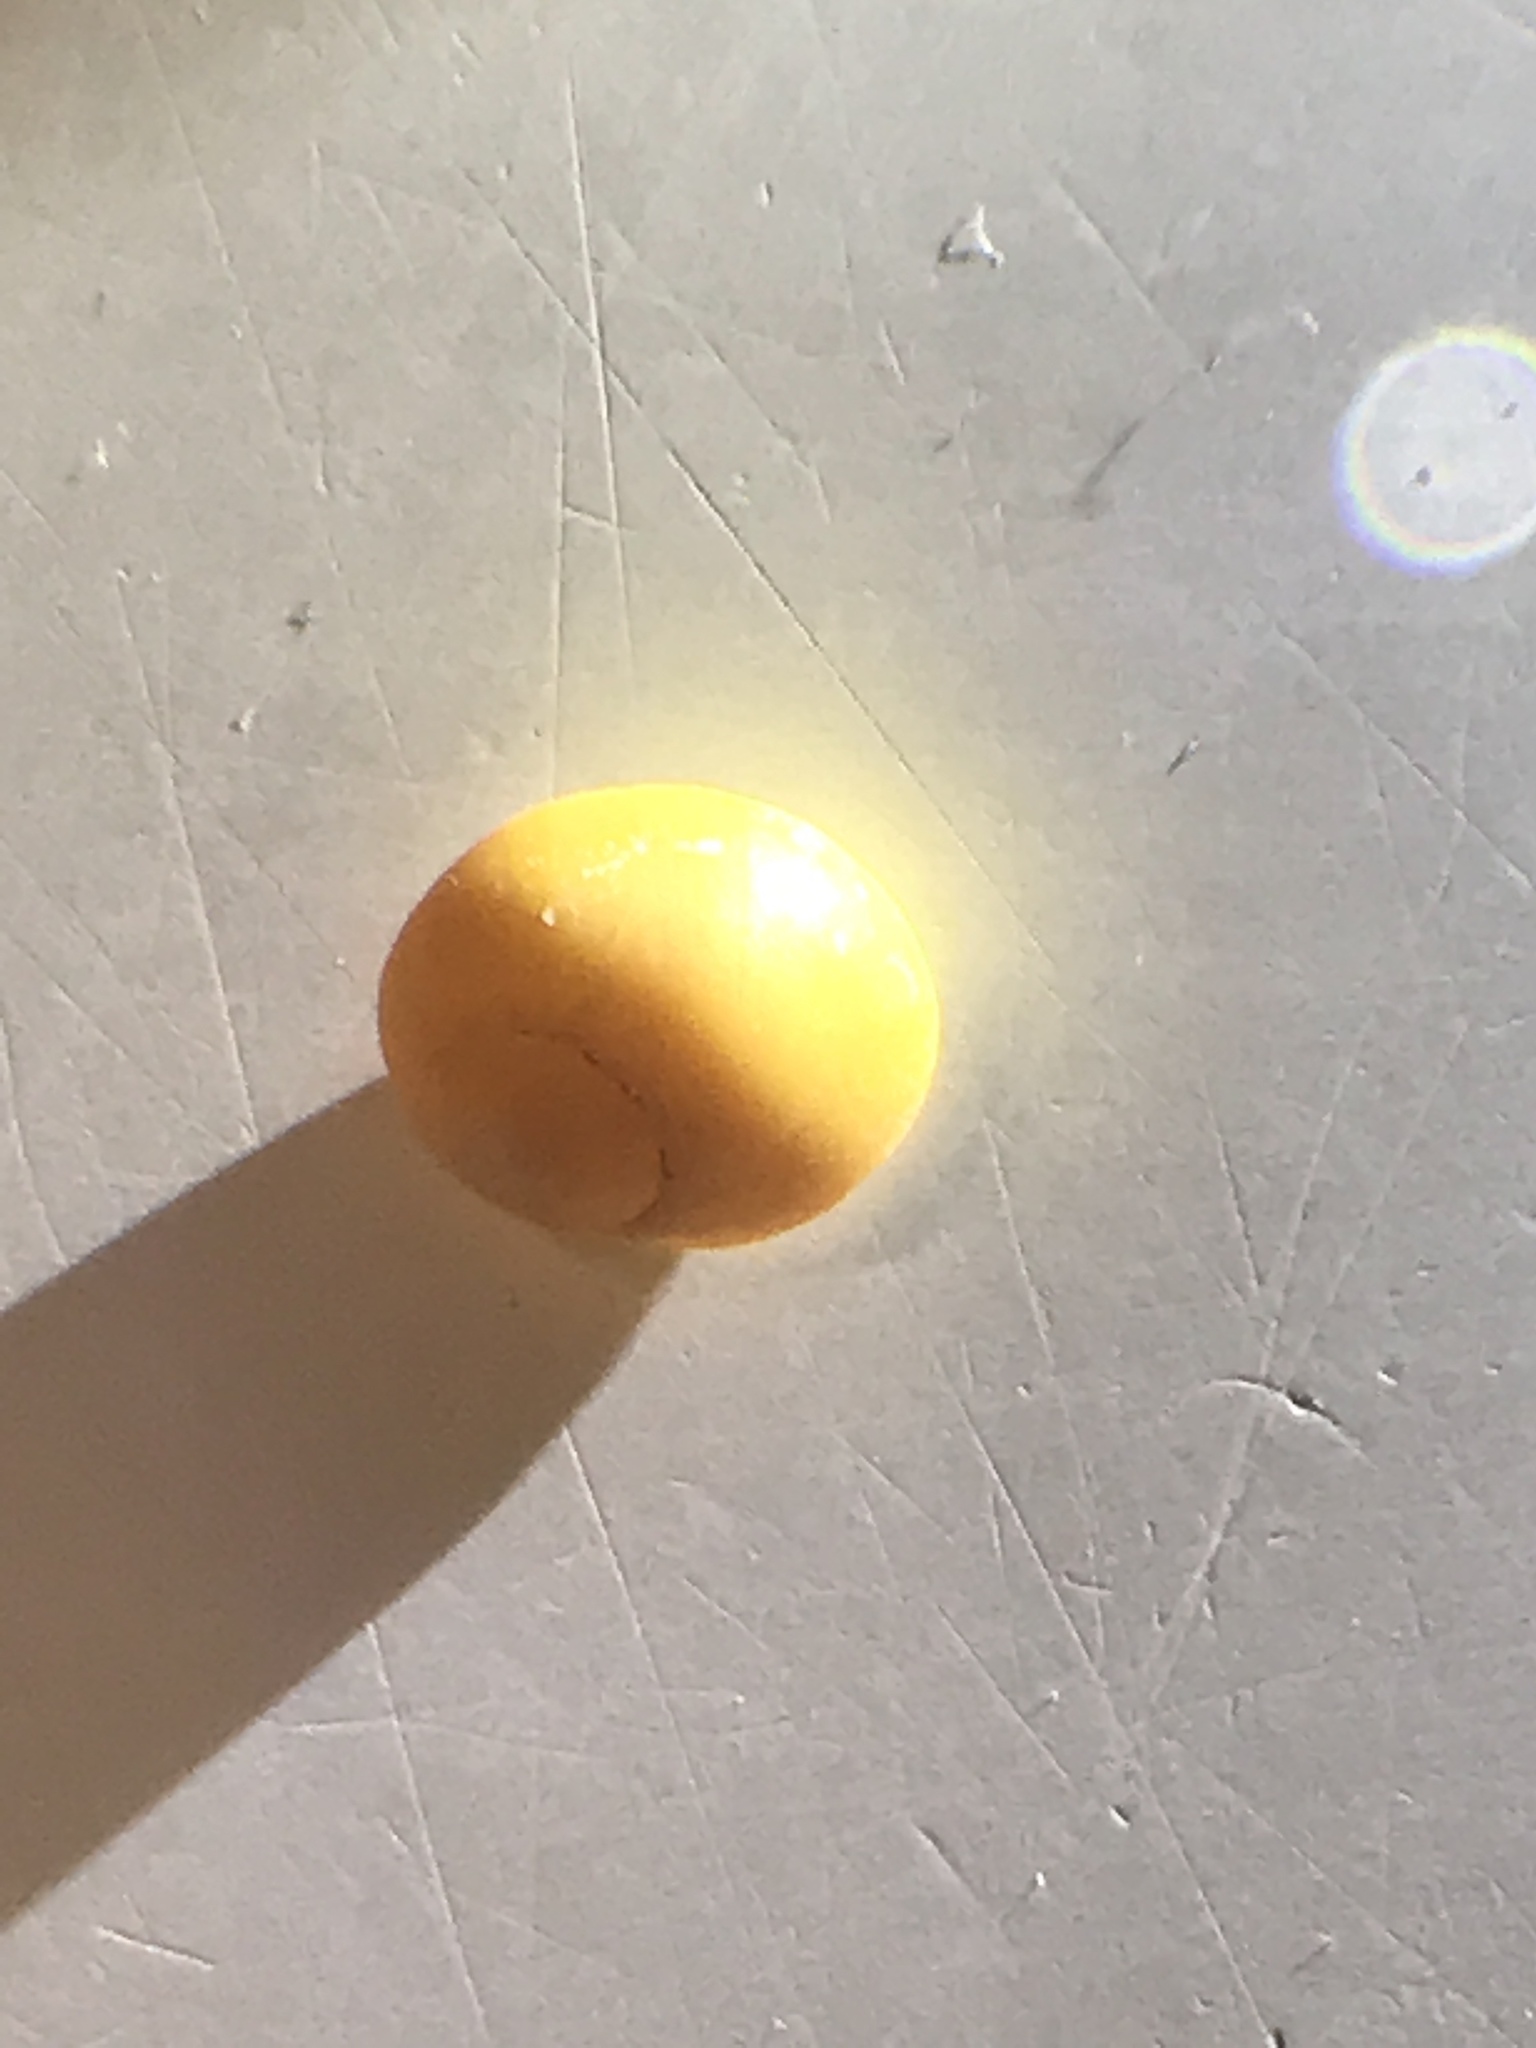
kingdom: Animalia
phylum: Mollusca
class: Gastropoda
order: Littorinimorpha
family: Littorinidae
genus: Littorina
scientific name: Littorina obtusata
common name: Flat periwinkle
